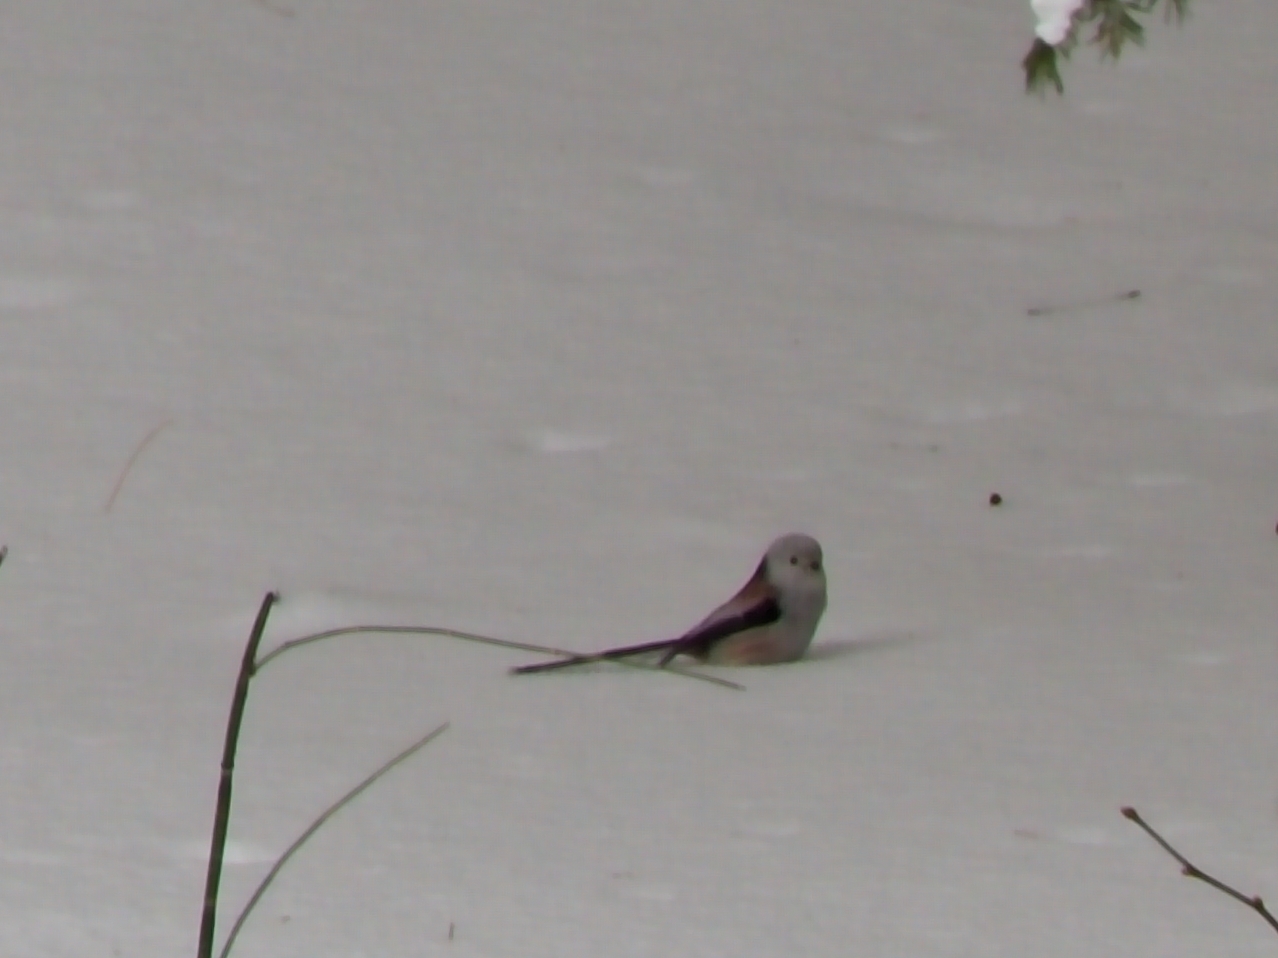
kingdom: Animalia
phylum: Chordata
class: Aves
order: Passeriformes
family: Aegithalidae
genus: Aegithalos
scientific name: Aegithalos caudatus
